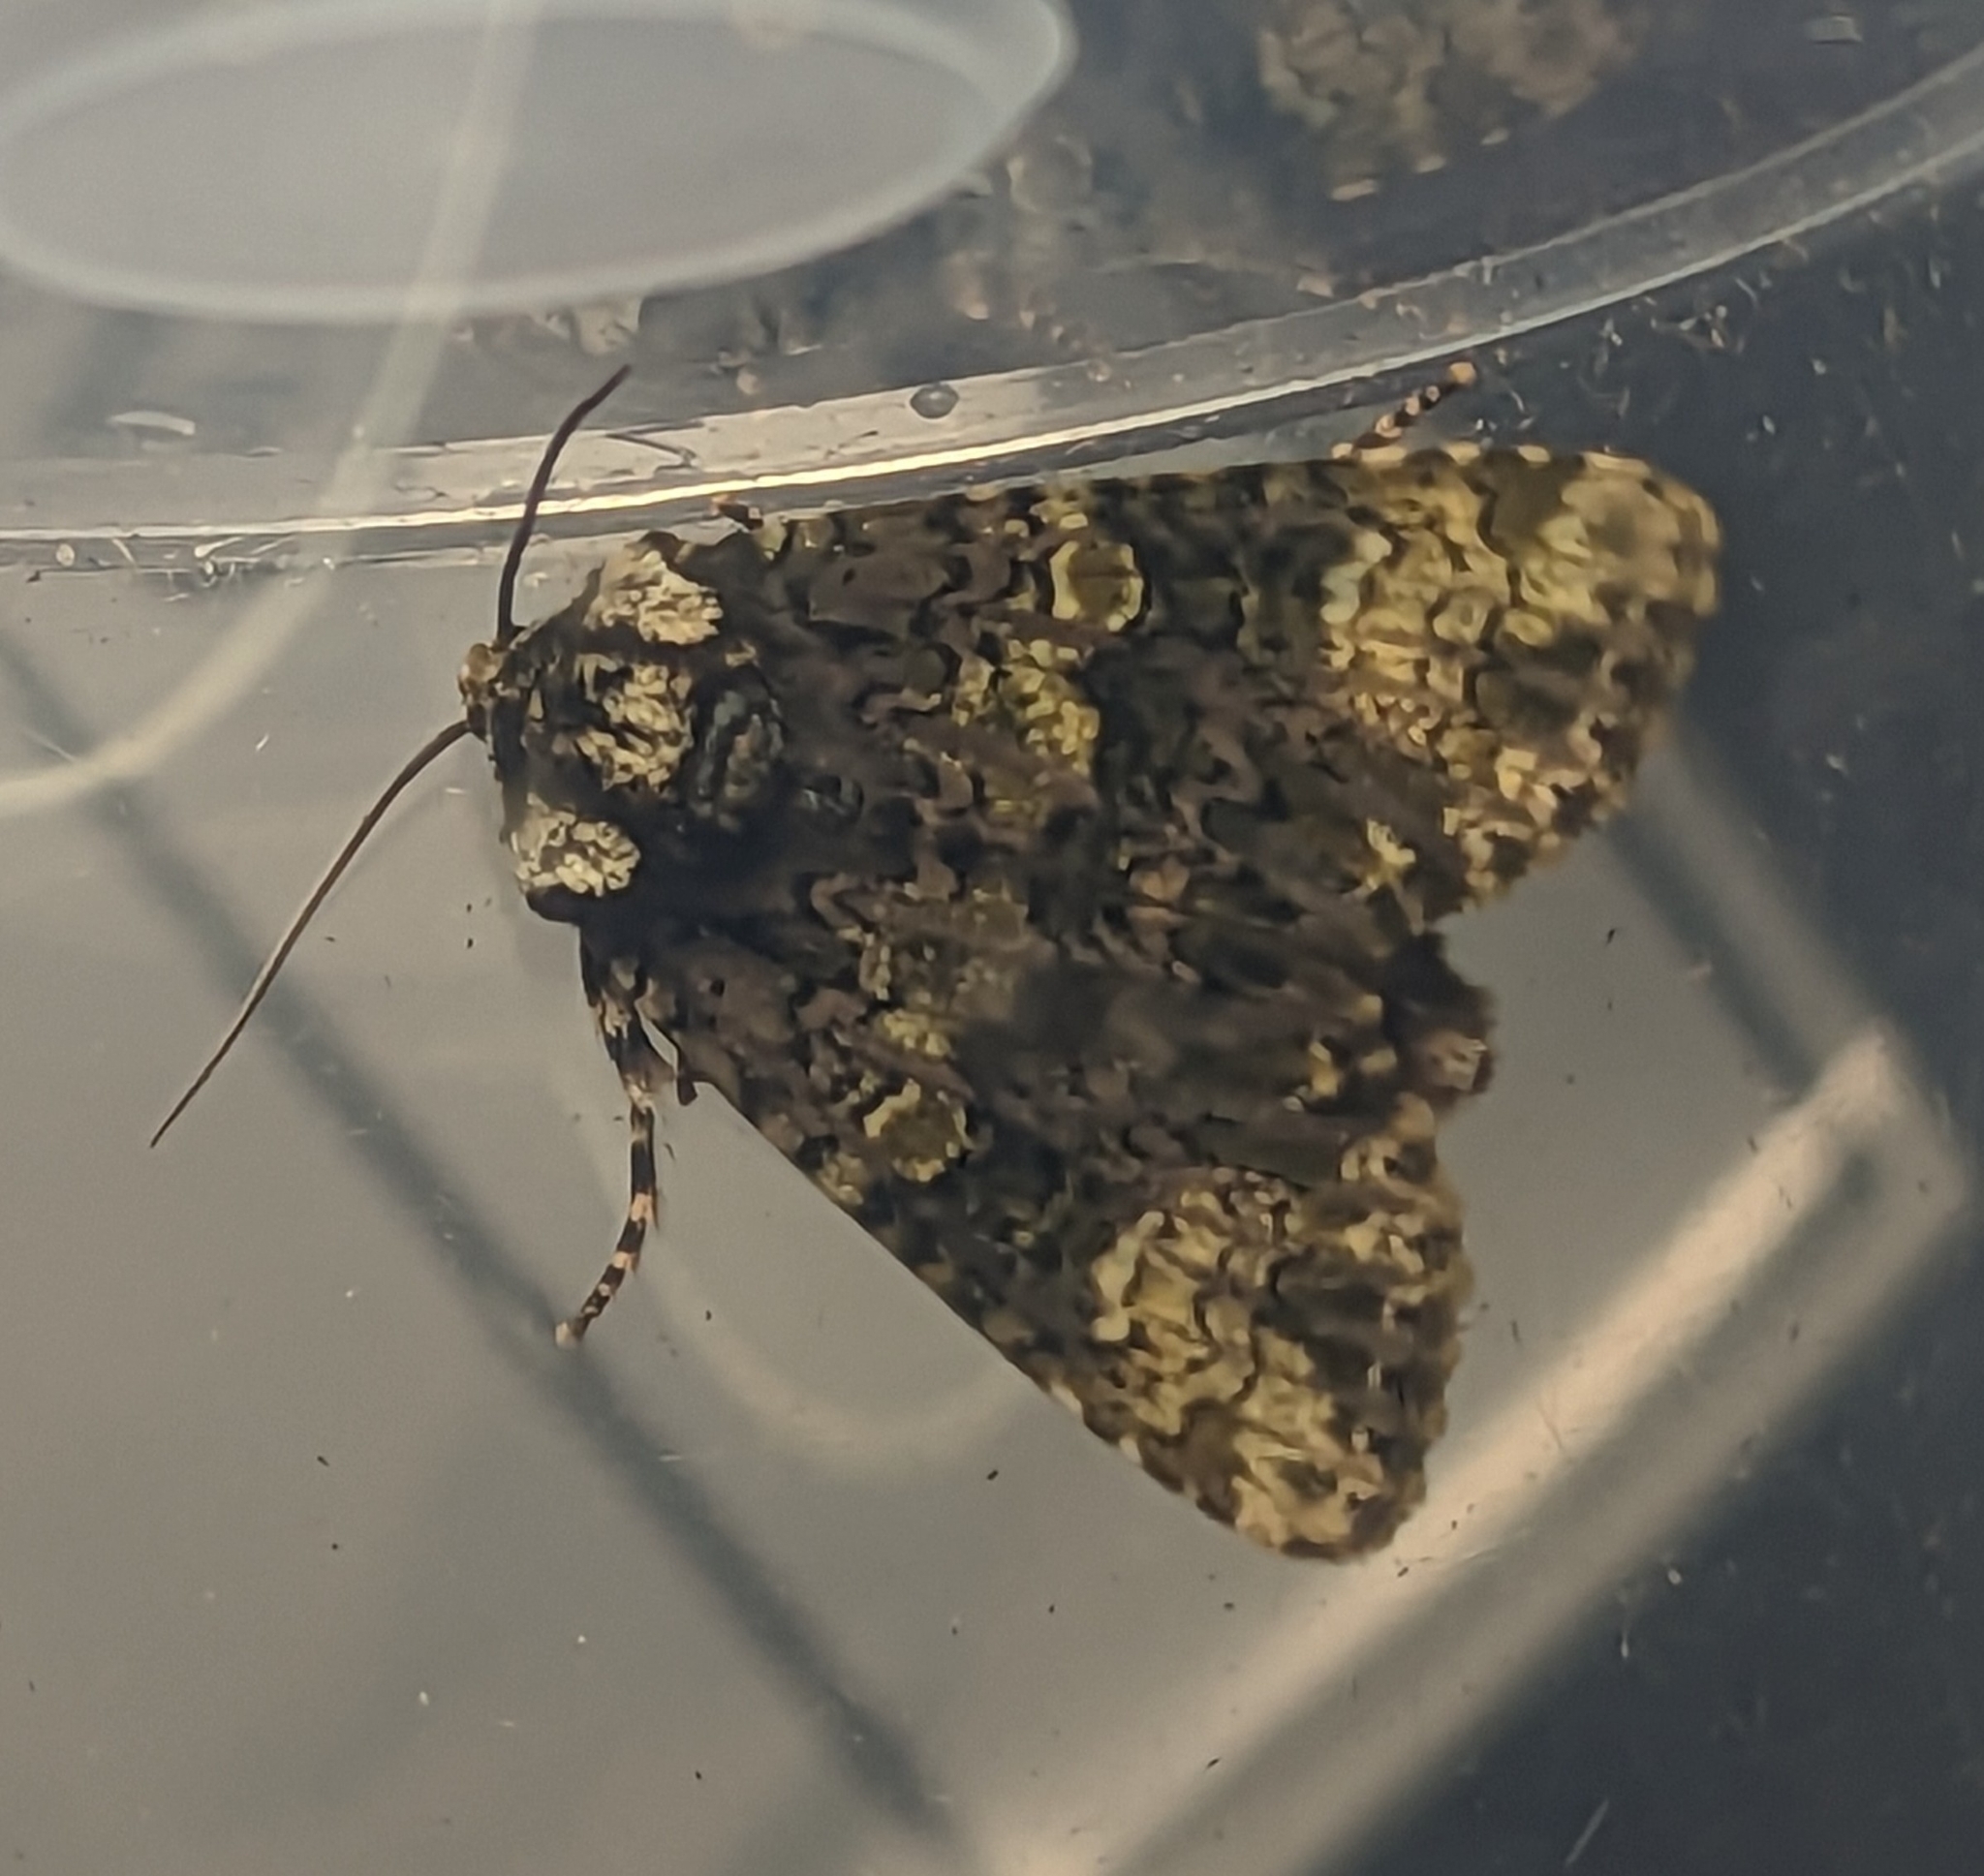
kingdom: Animalia
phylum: Arthropoda
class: Insecta
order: Lepidoptera
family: Noctuidae
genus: Craniophora
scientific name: Craniophora ligustri
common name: Coronet
